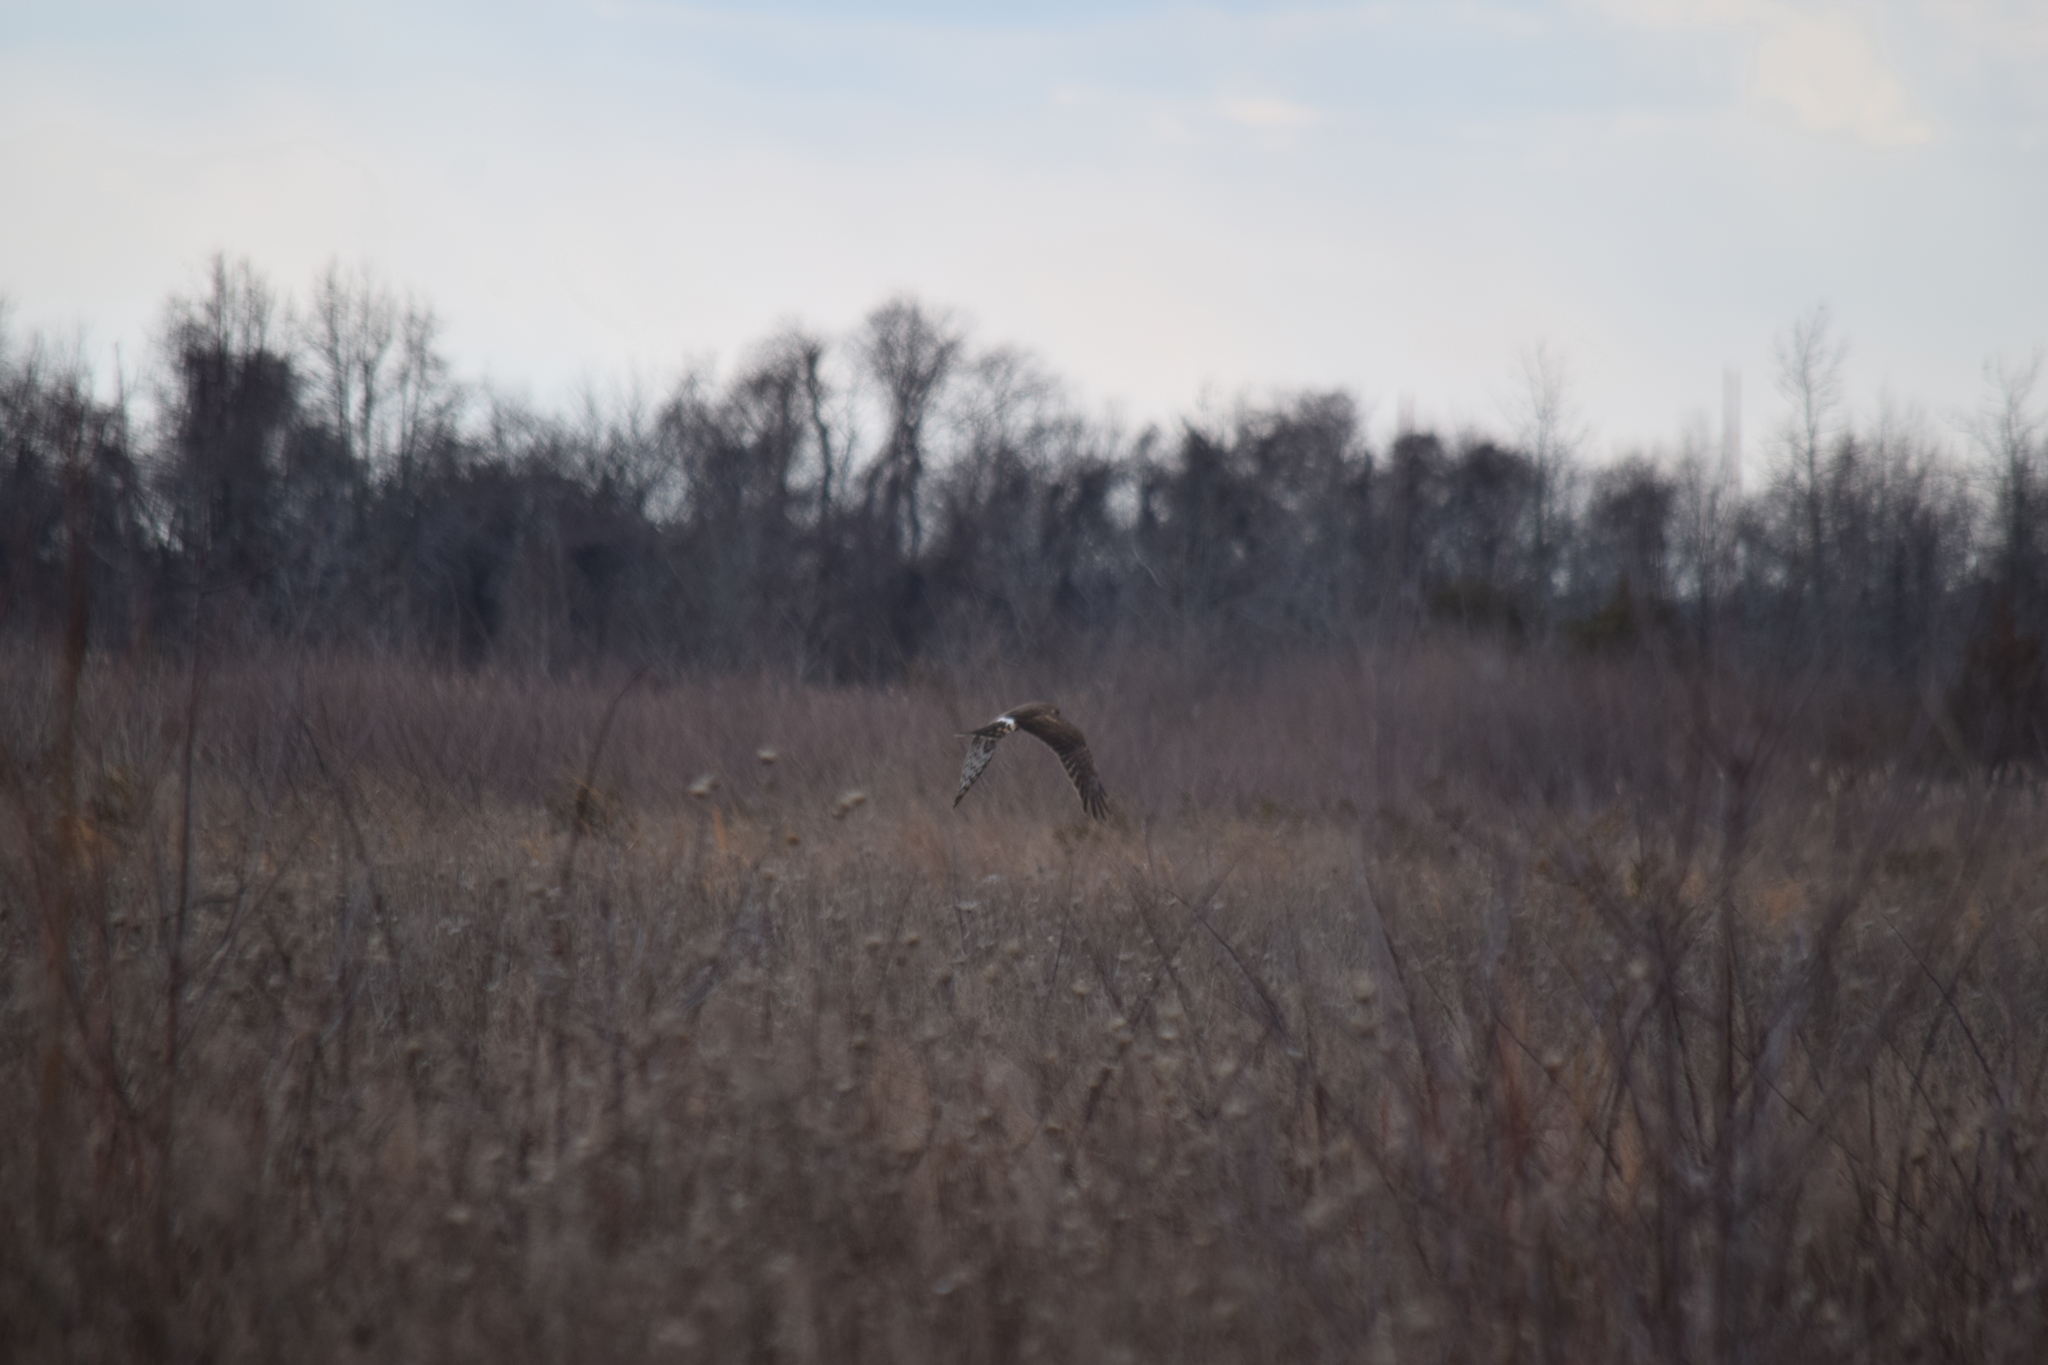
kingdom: Animalia
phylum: Chordata
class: Aves
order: Accipitriformes
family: Accipitridae
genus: Circus
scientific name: Circus cyaneus
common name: Hen harrier
